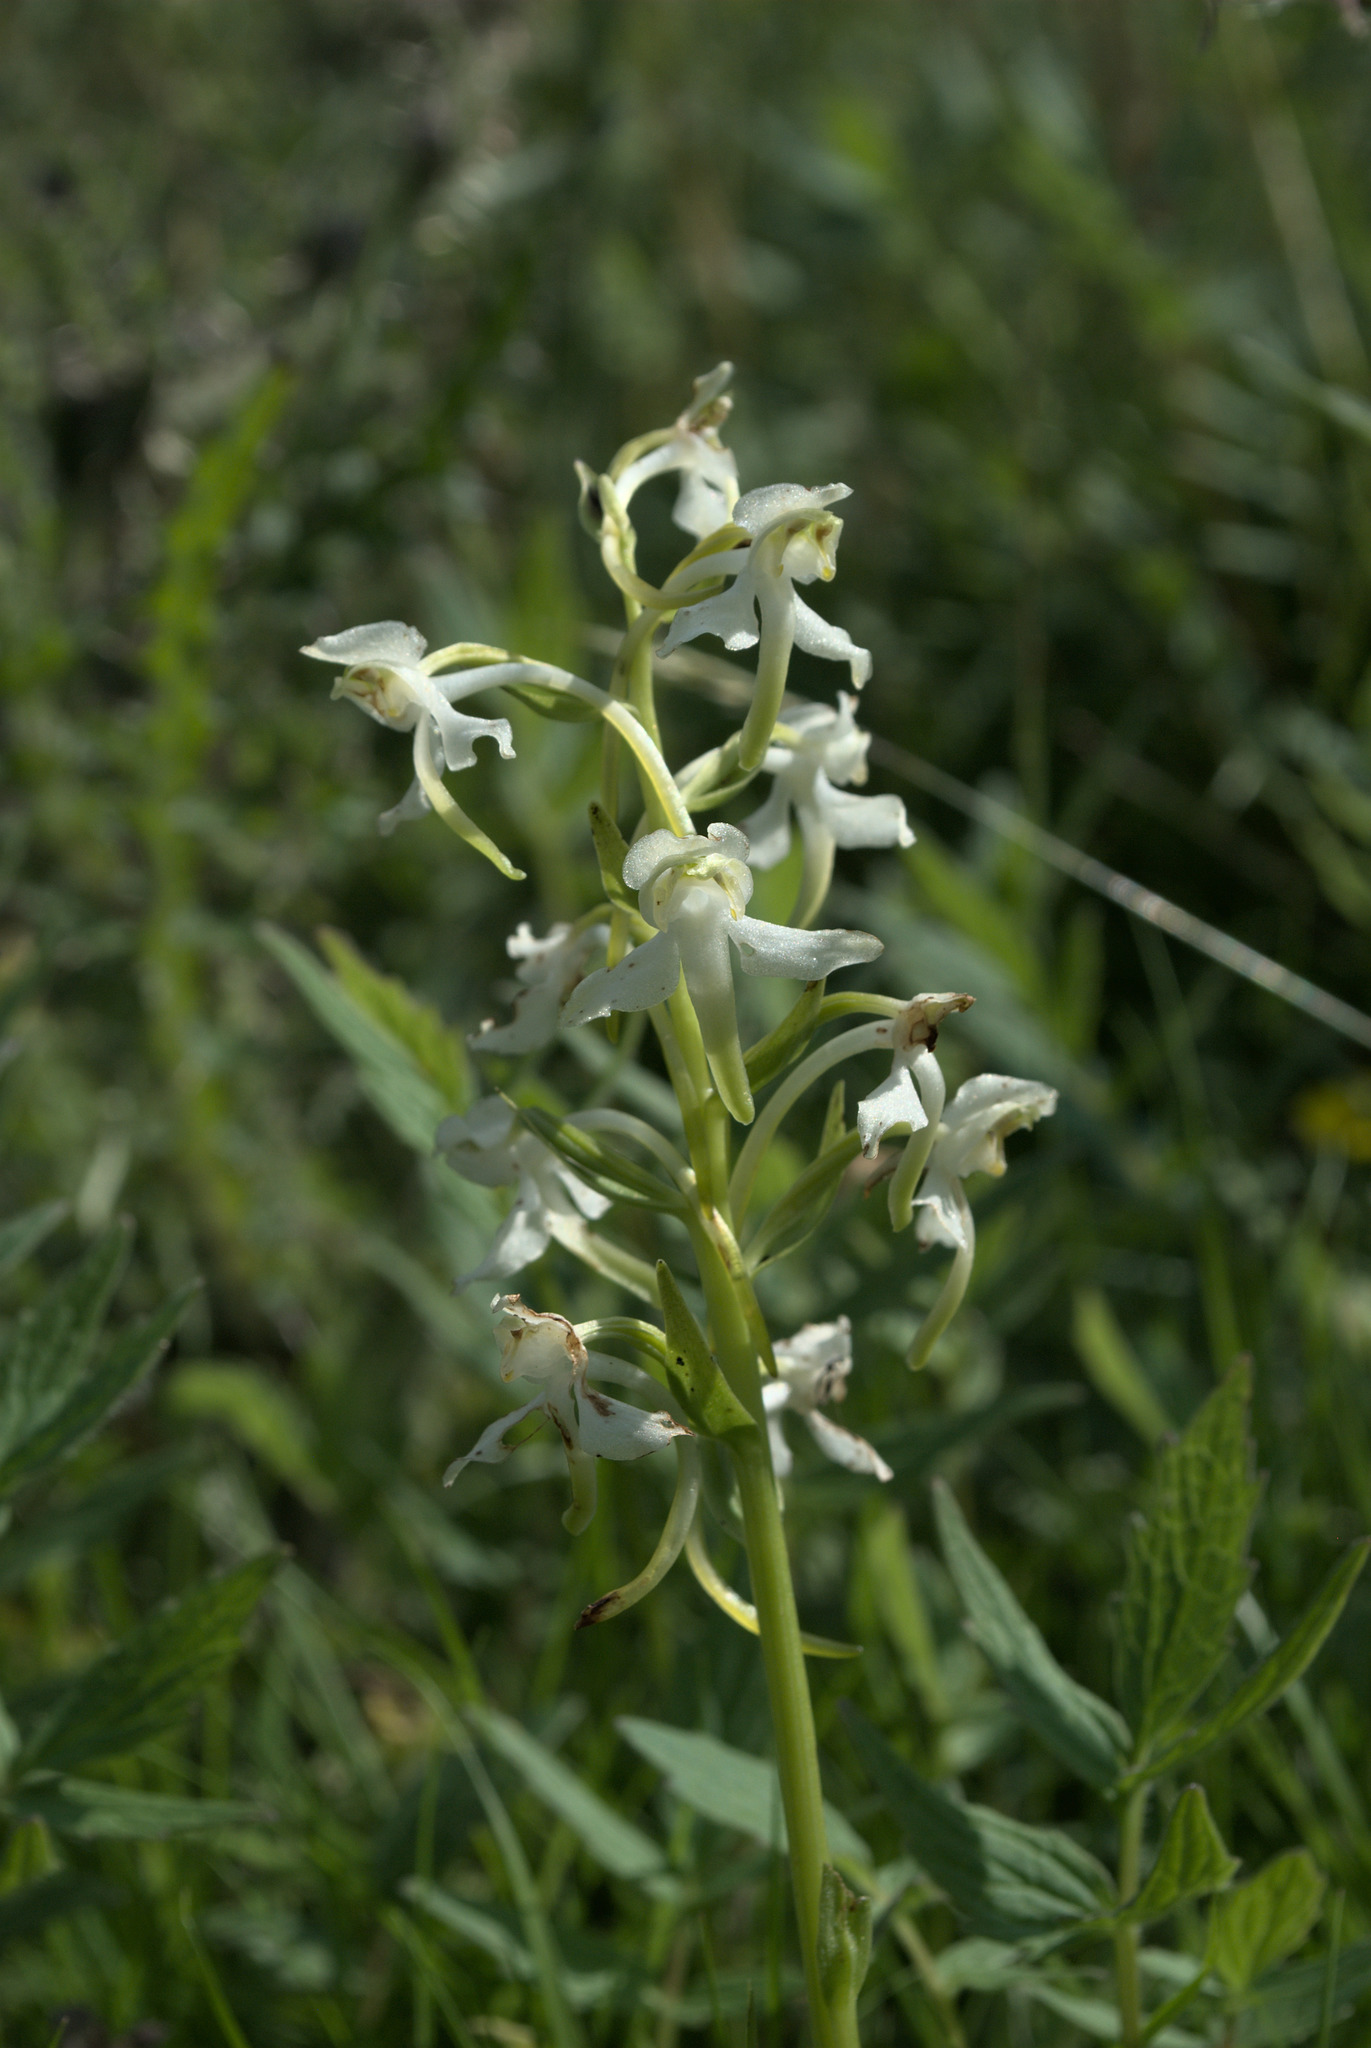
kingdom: Plantae
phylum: Tracheophyta
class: Liliopsida
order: Asparagales
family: Orchidaceae
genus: Platanthera
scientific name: Platanthera chlorantha
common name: Greater butterfly-orchid
